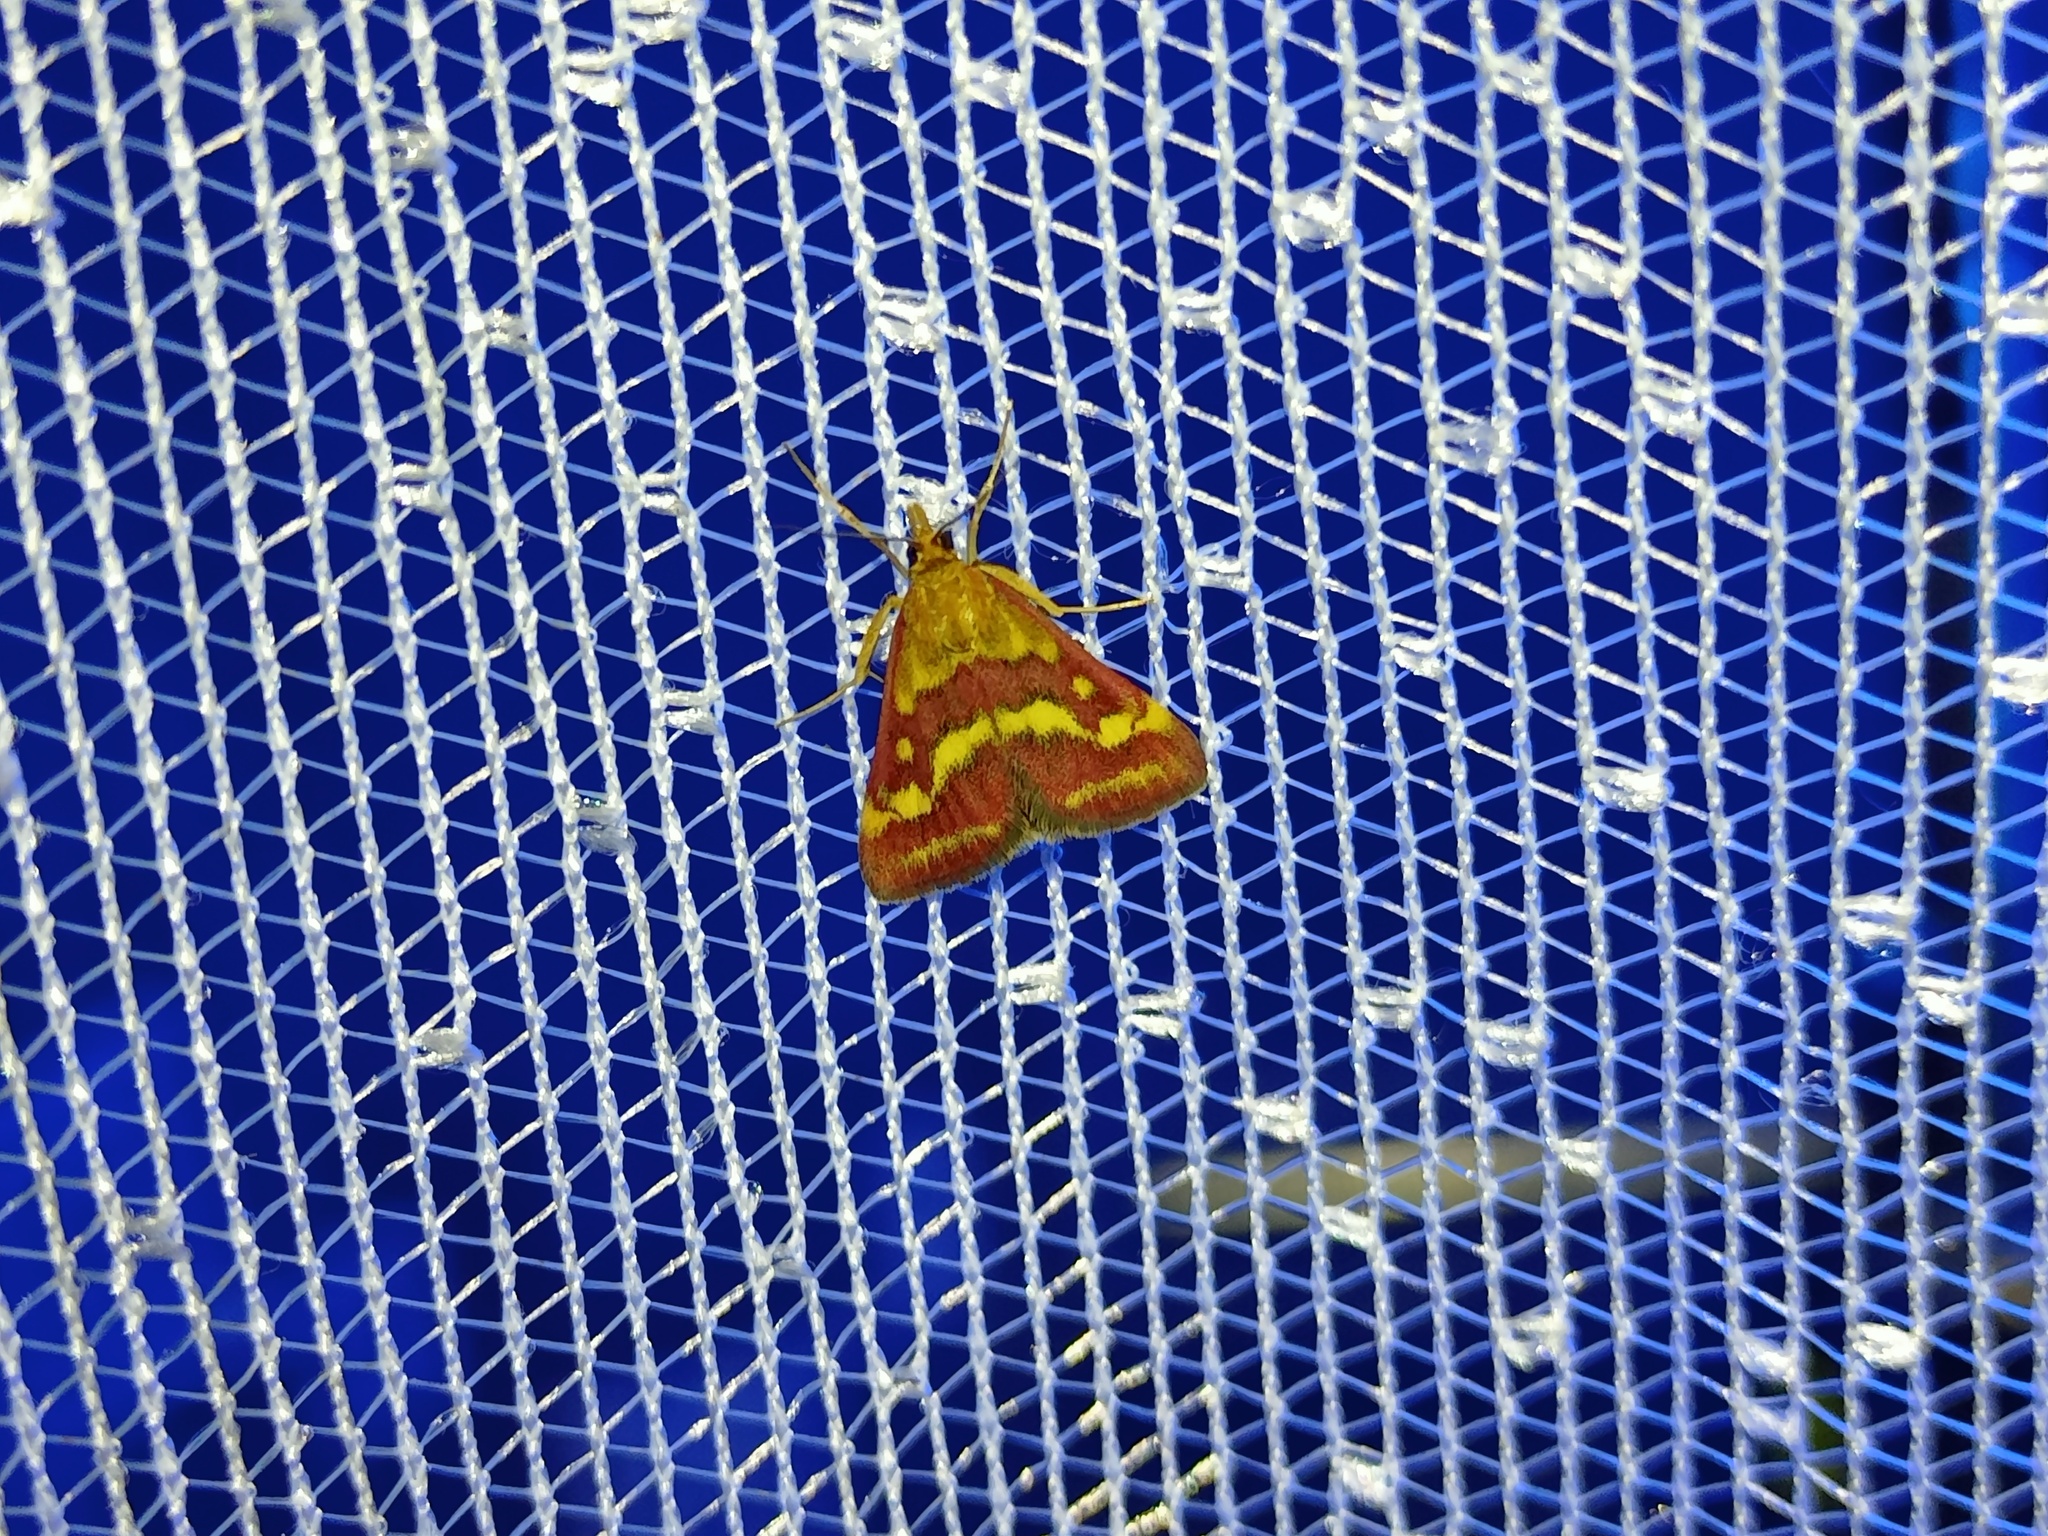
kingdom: Animalia
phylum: Arthropoda
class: Insecta
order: Lepidoptera
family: Crambidae
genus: Pyrausta
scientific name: Pyrausta ostrinalis
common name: Scarce purple & gold
